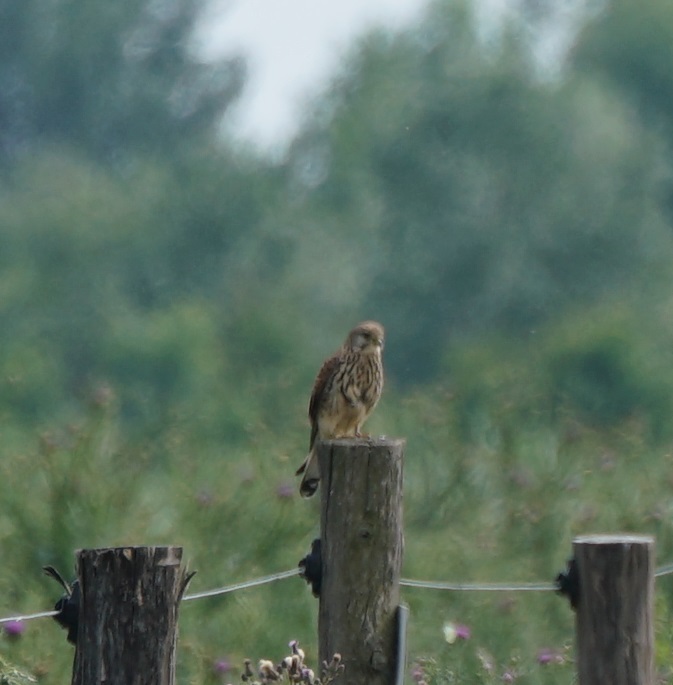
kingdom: Animalia
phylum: Chordata
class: Aves
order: Falconiformes
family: Falconidae
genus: Falco
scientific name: Falco tinnunculus
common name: Common kestrel
